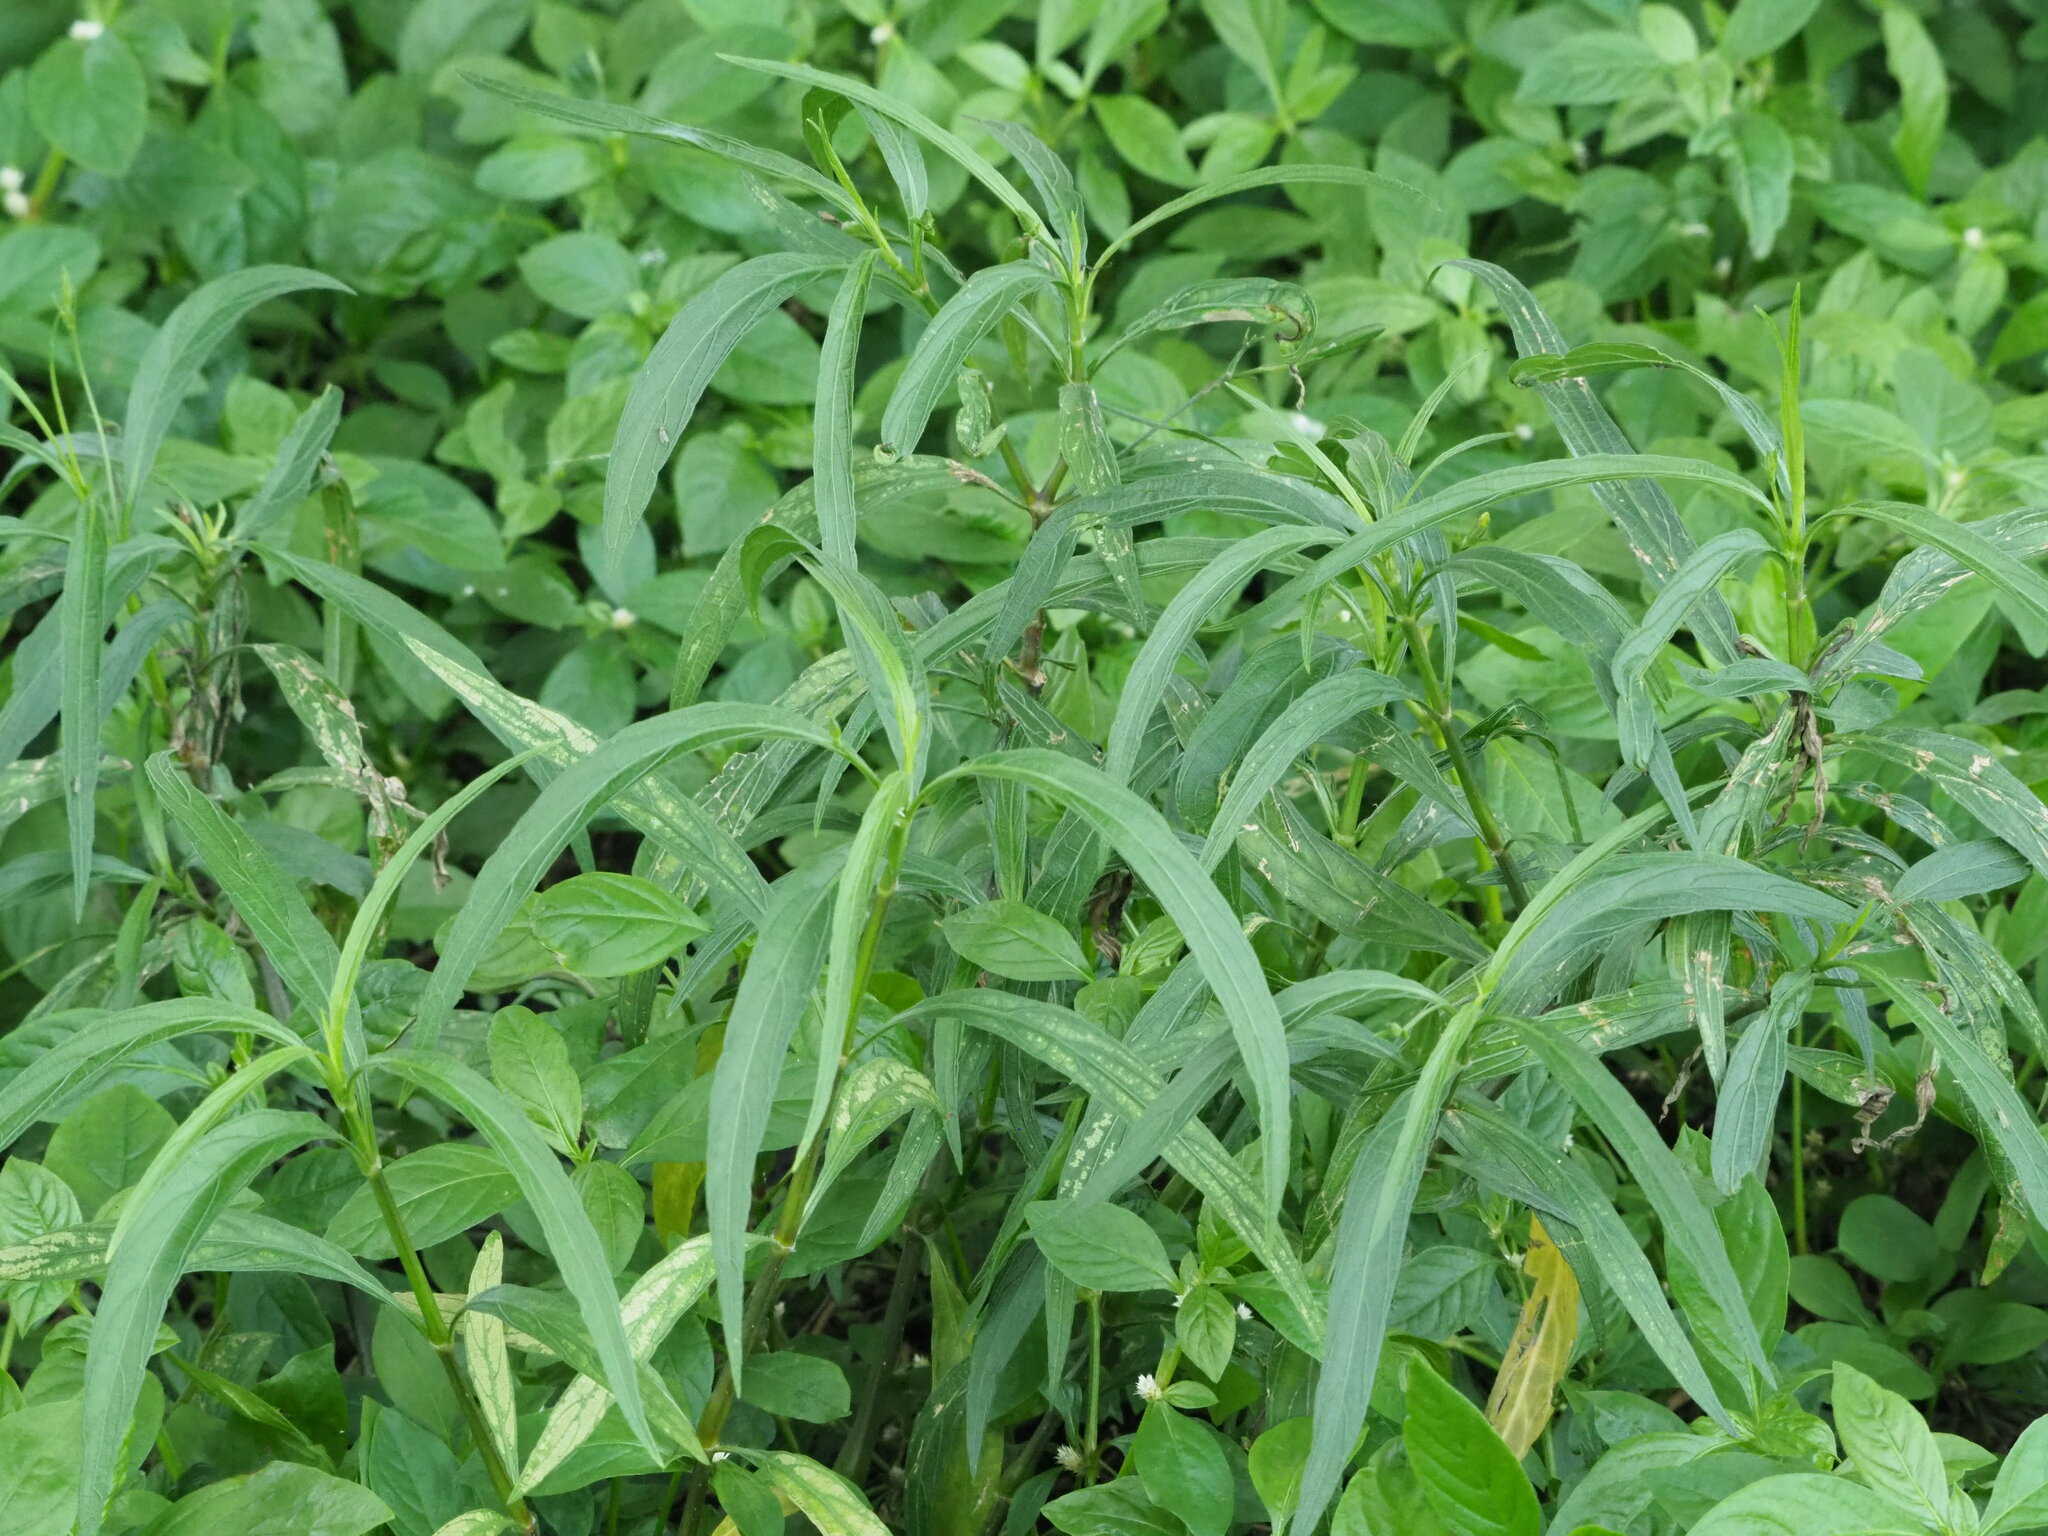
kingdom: Plantae
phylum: Tracheophyta
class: Magnoliopsida
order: Lamiales
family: Acanthaceae
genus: Ruellia
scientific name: Ruellia simplex
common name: Softseed wild petunia
